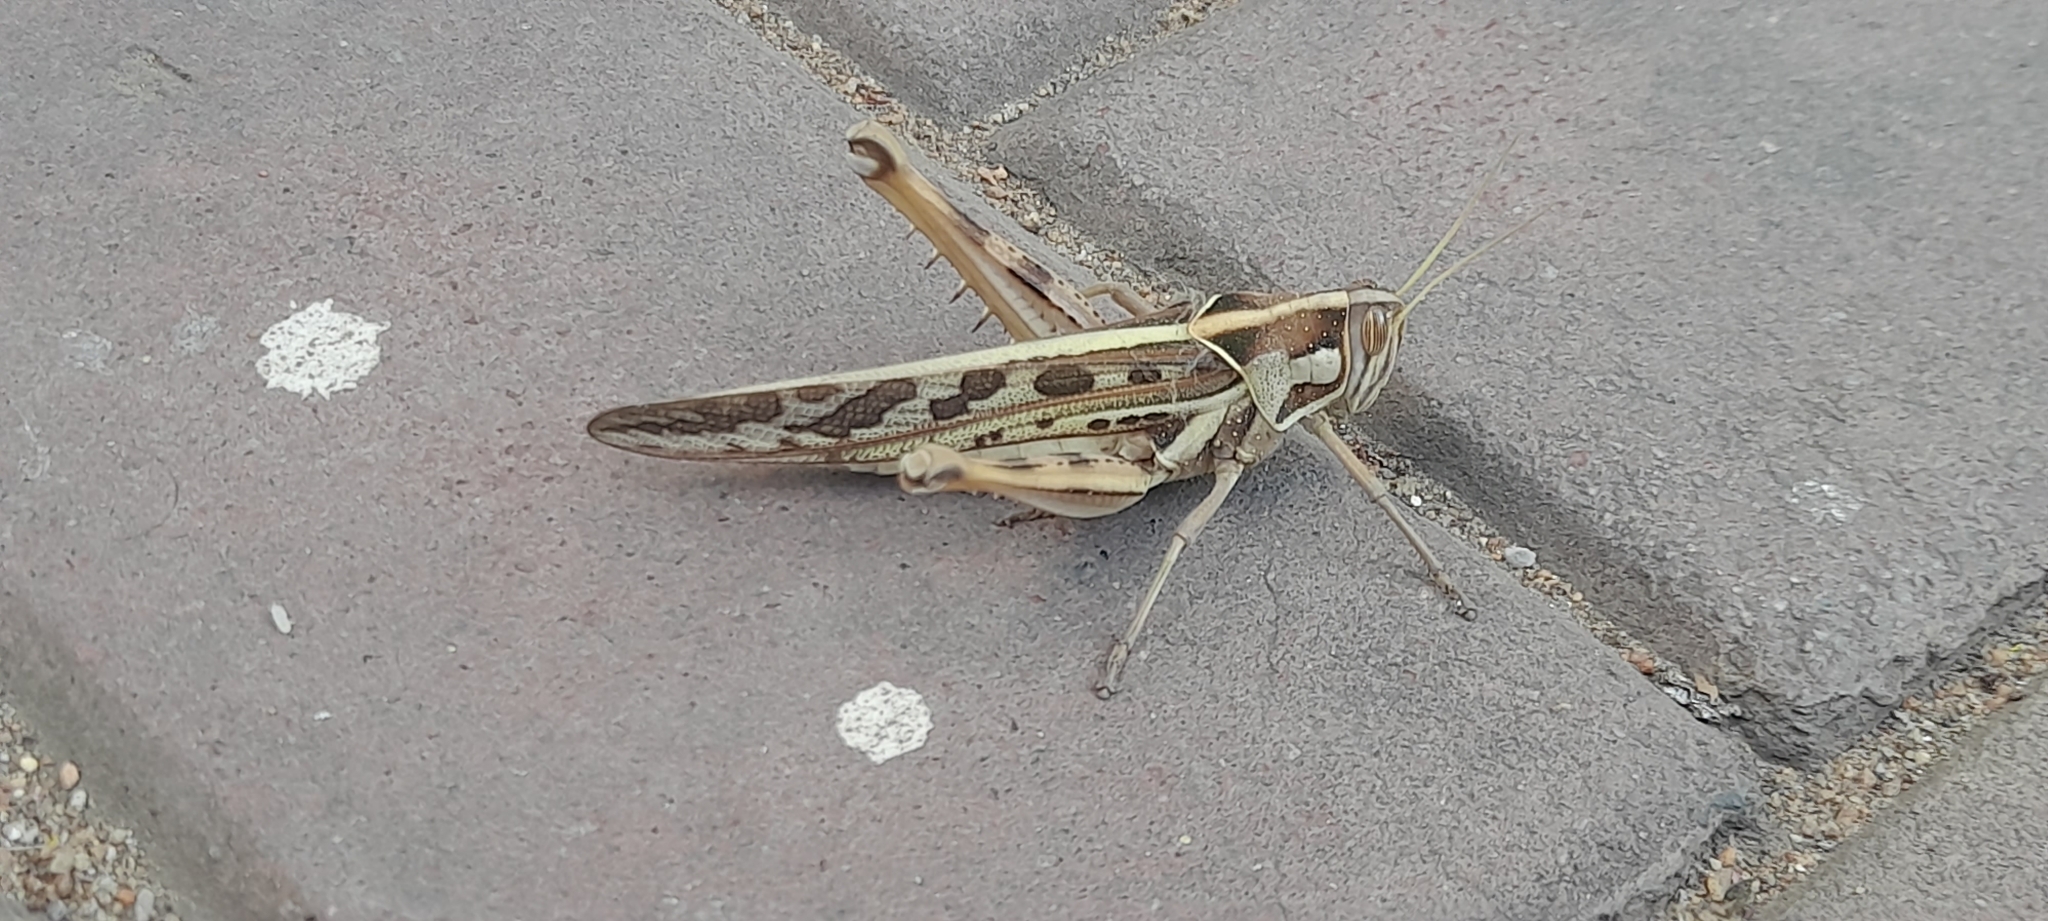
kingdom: Animalia
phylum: Arthropoda
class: Insecta
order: Orthoptera
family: Acrididae
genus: Cyrtacanthacris
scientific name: Cyrtacanthacris tatarica
